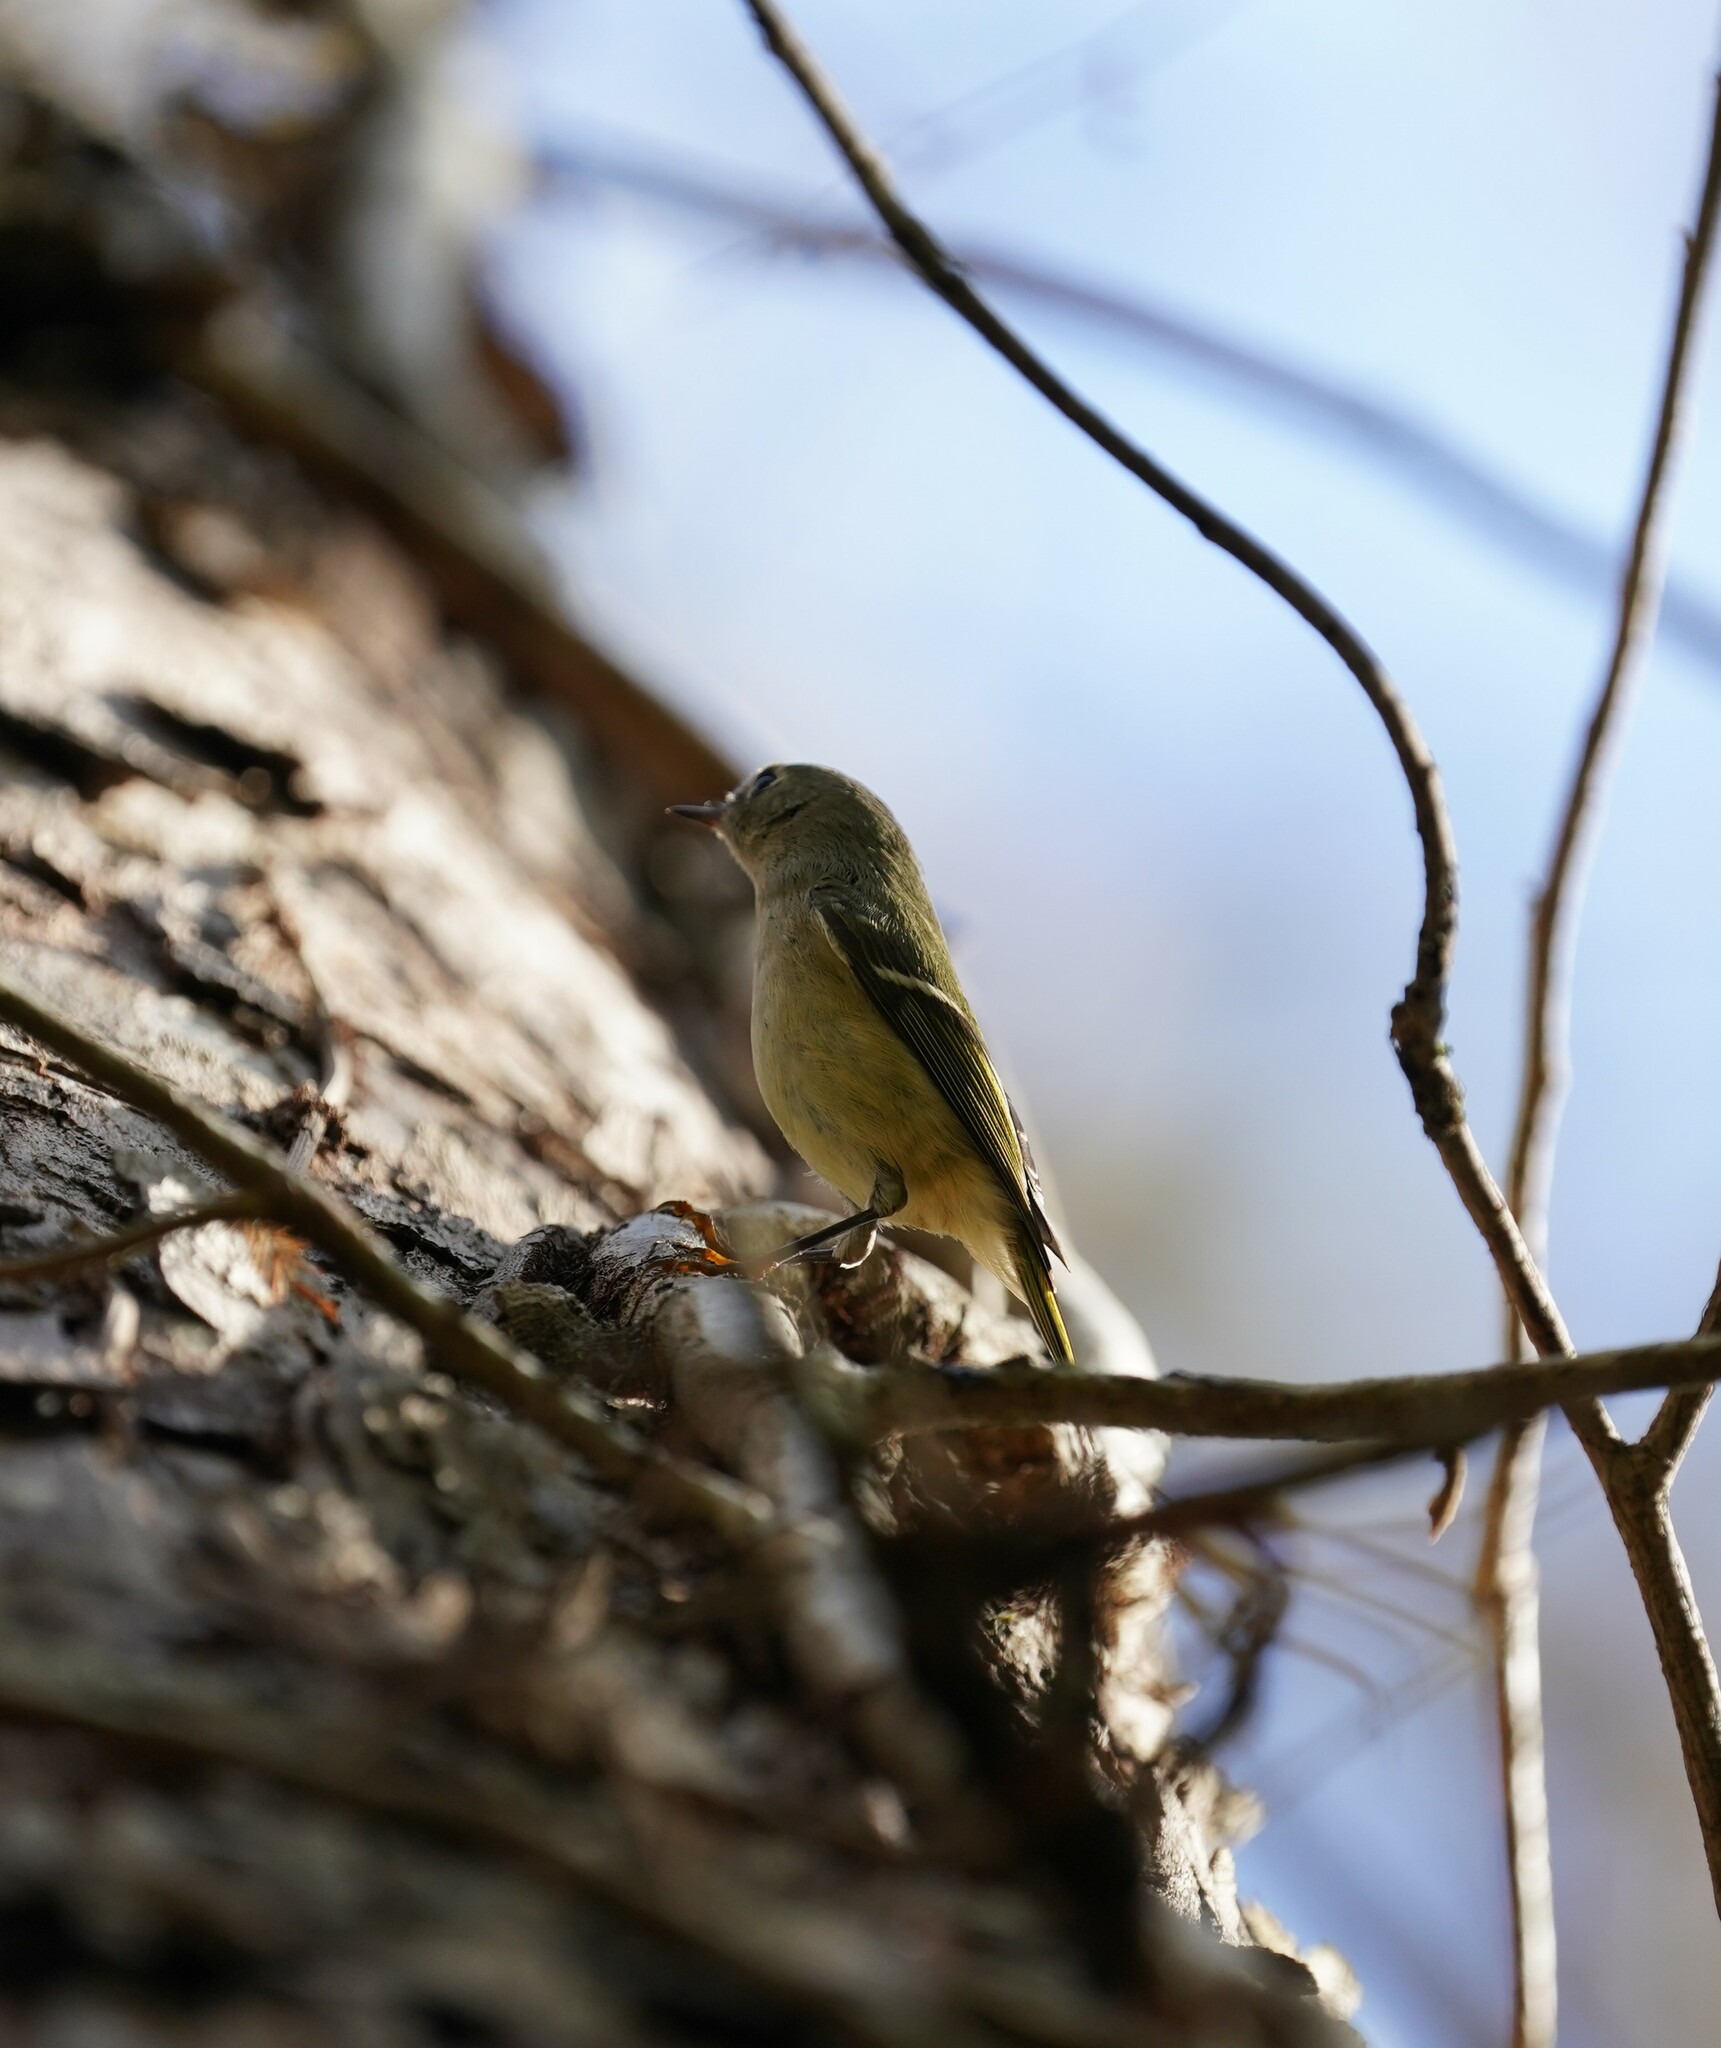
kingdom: Animalia
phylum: Chordata
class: Aves
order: Passeriformes
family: Regulidae
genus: Regulus
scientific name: Regulus calendula
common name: Ruby-crowned kinglet
